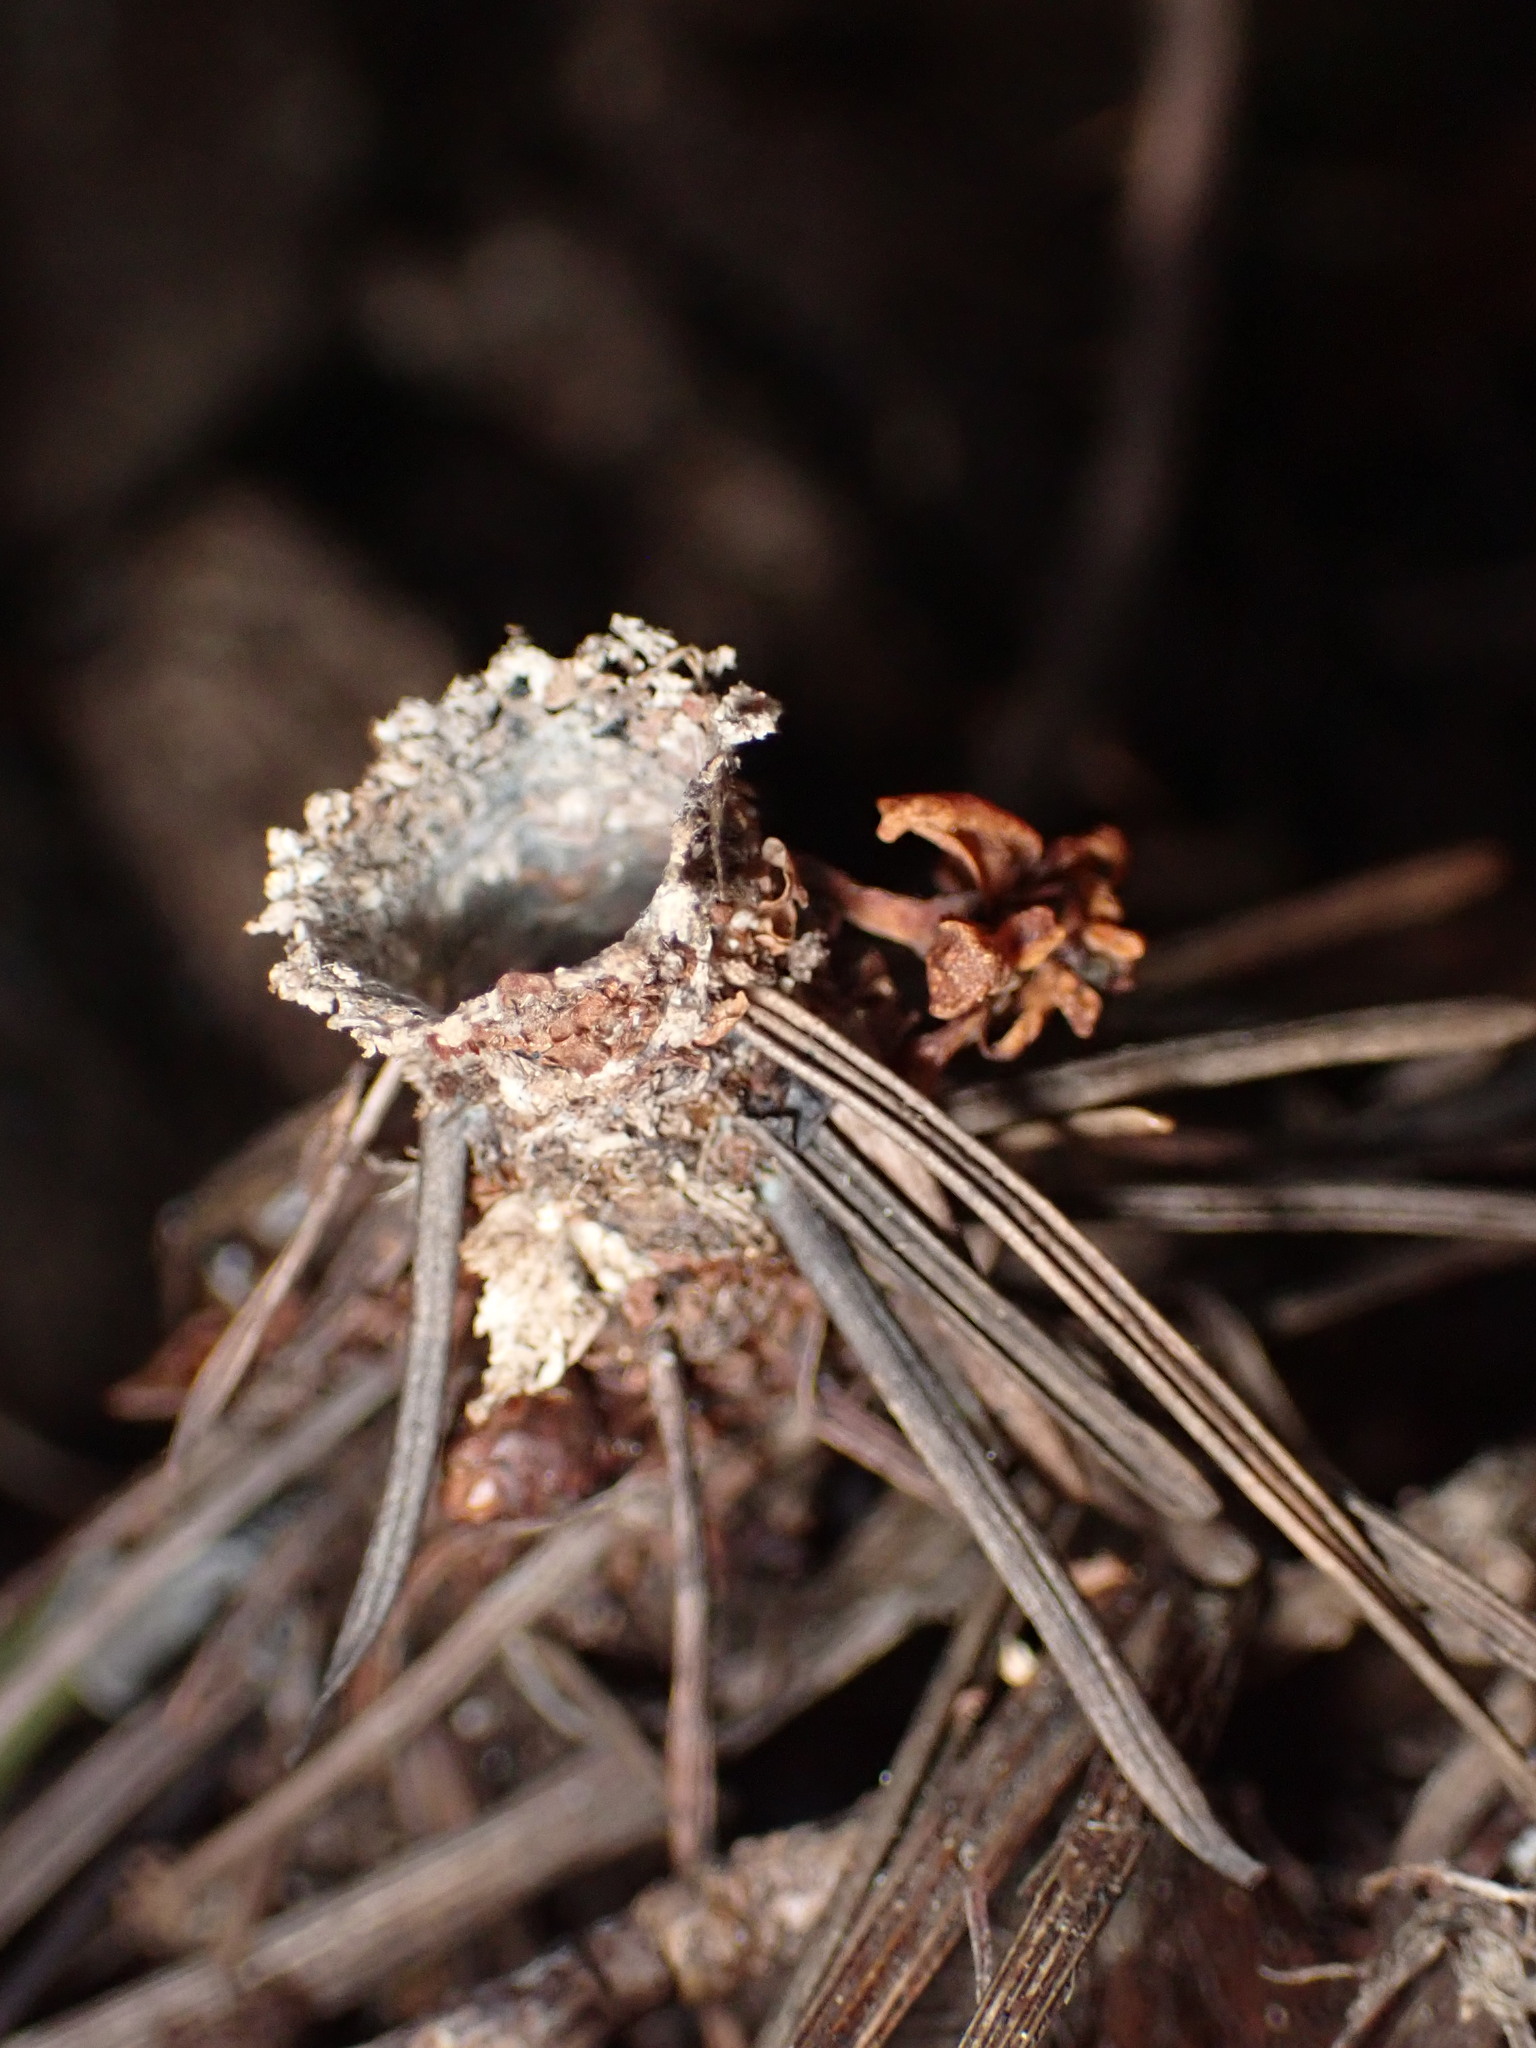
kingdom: Animalia
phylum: Arthropoda
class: Arachnida
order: Araneae
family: Antrodiaetidae
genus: Atypoides
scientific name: Atypoides riversi
